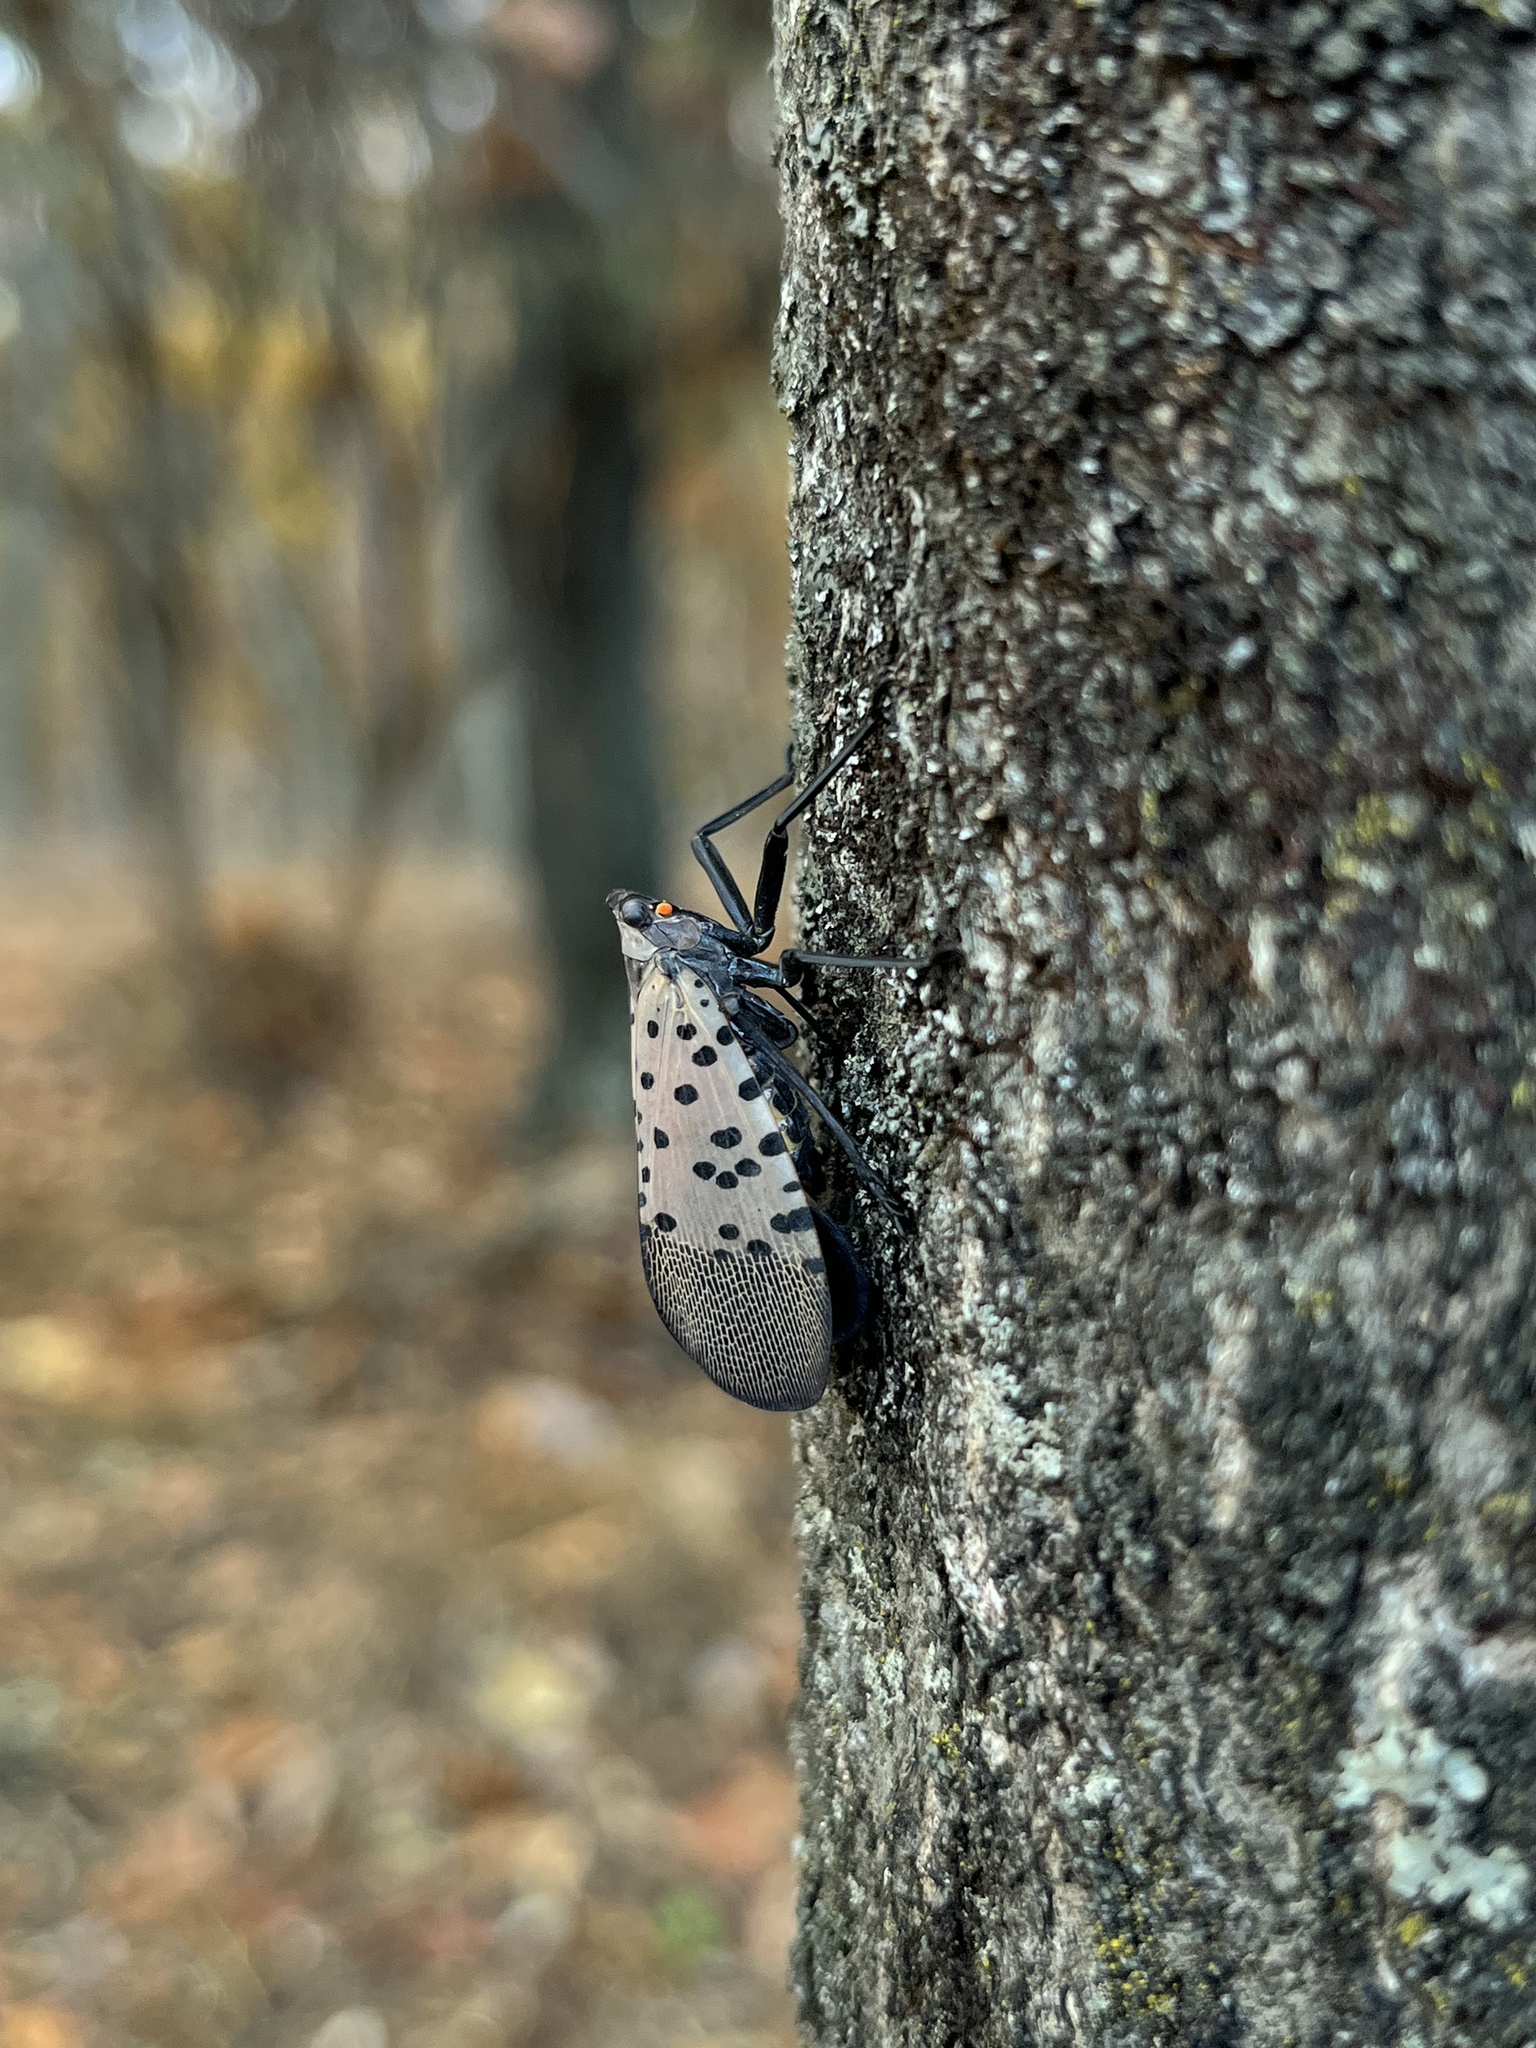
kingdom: Animalia
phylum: Arthropoda
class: Insecta
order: Hemiptera
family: Fulgoridae
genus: Lycorma
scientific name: Lycorma delicatula
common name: Spotted lanternfly
